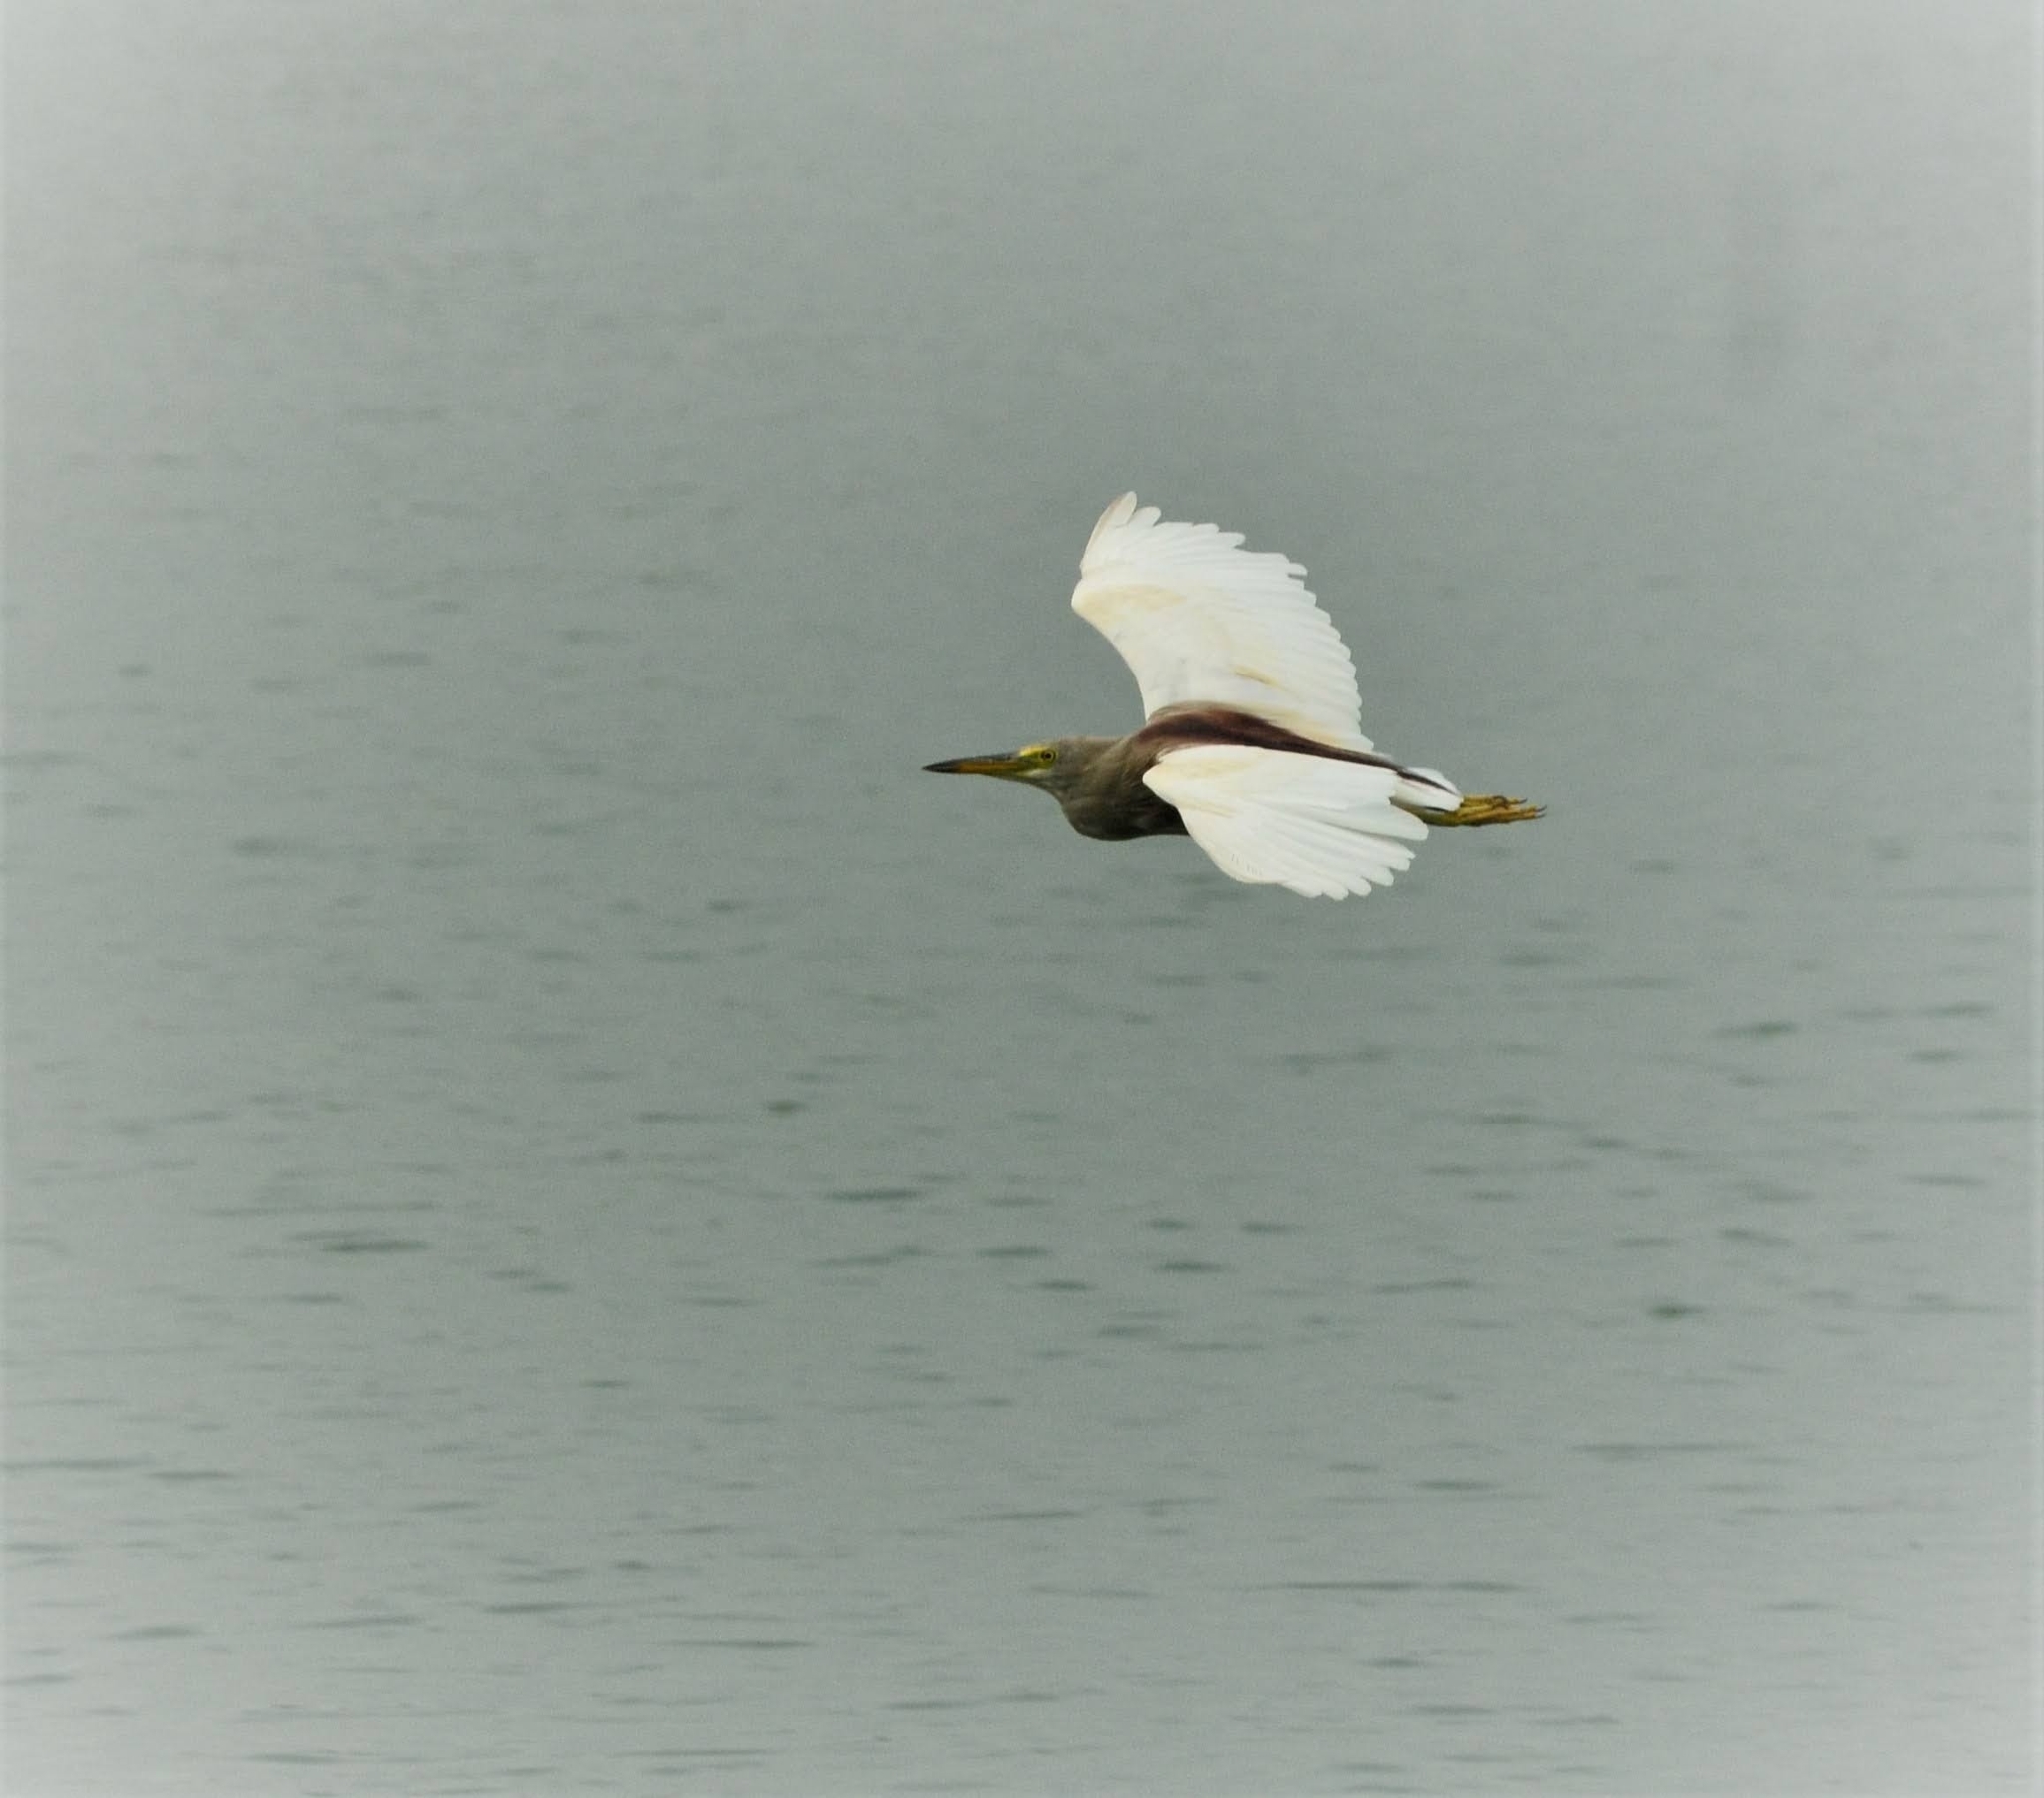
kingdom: Animalia
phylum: Chordata
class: Aves
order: Pelecaniformes
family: Ardeidae
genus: Ardeola
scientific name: Ardeola grayii
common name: Indian pond heron
